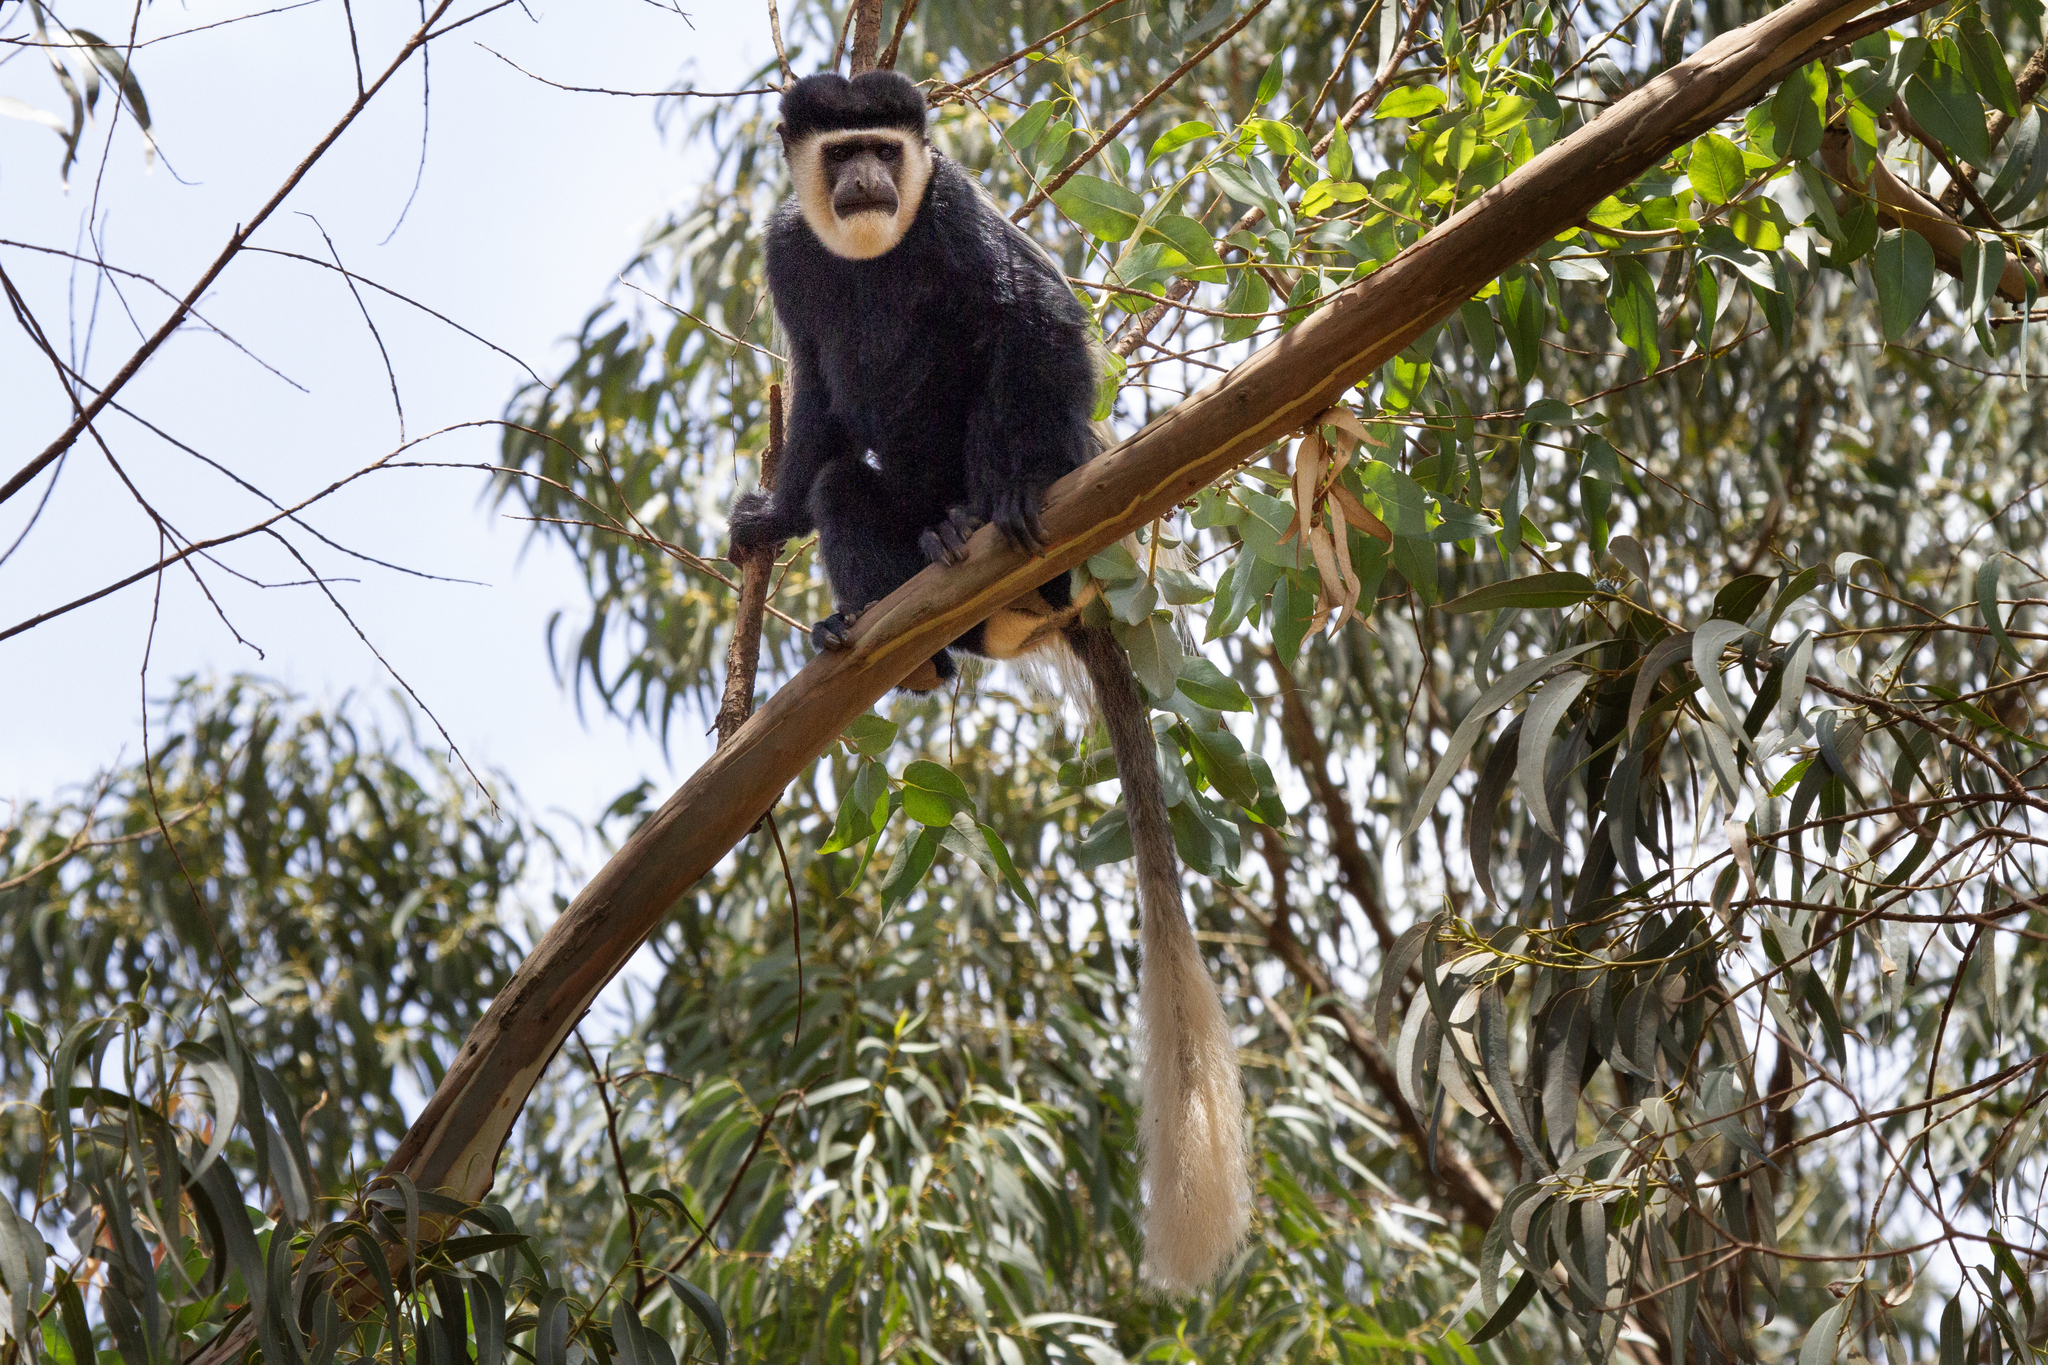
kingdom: Animalia
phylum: Chordata
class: Mammalia
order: Primates
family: Cercopithecidae
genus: Colobus
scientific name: Colobus guereza
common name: Mantled guereza
